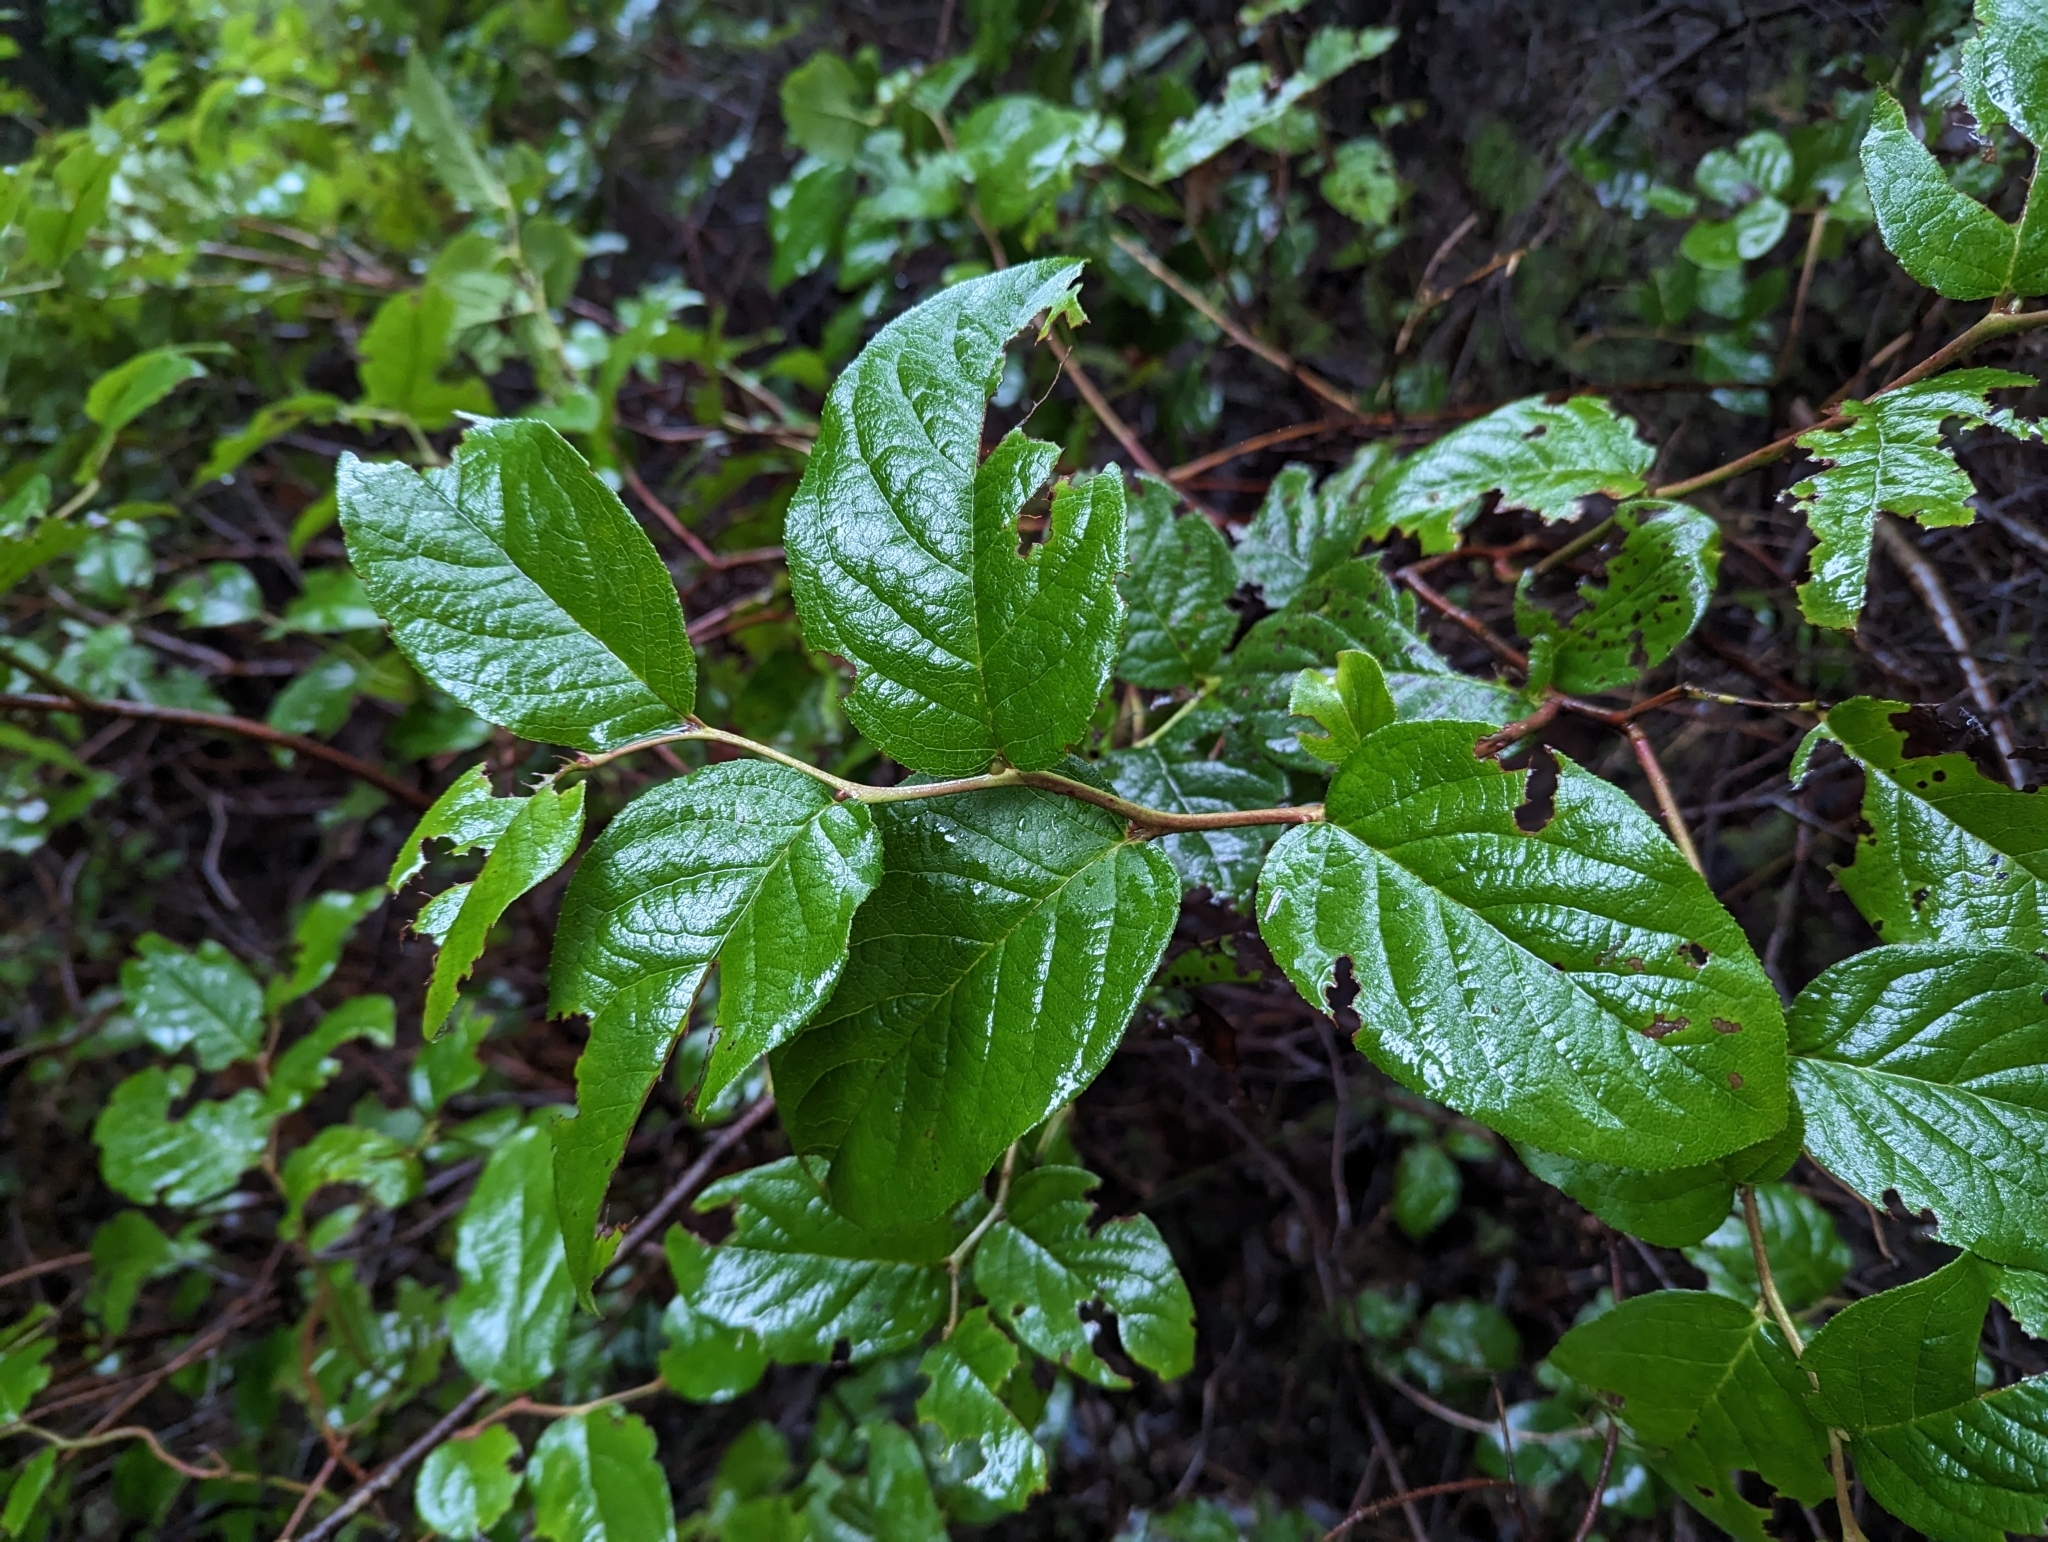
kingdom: Plantae
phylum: Tracheophyta
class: Magnoliopsida
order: Ericales
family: Ericaceae
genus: Gaultheria
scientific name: Gaultheria shallon
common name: Shallon
